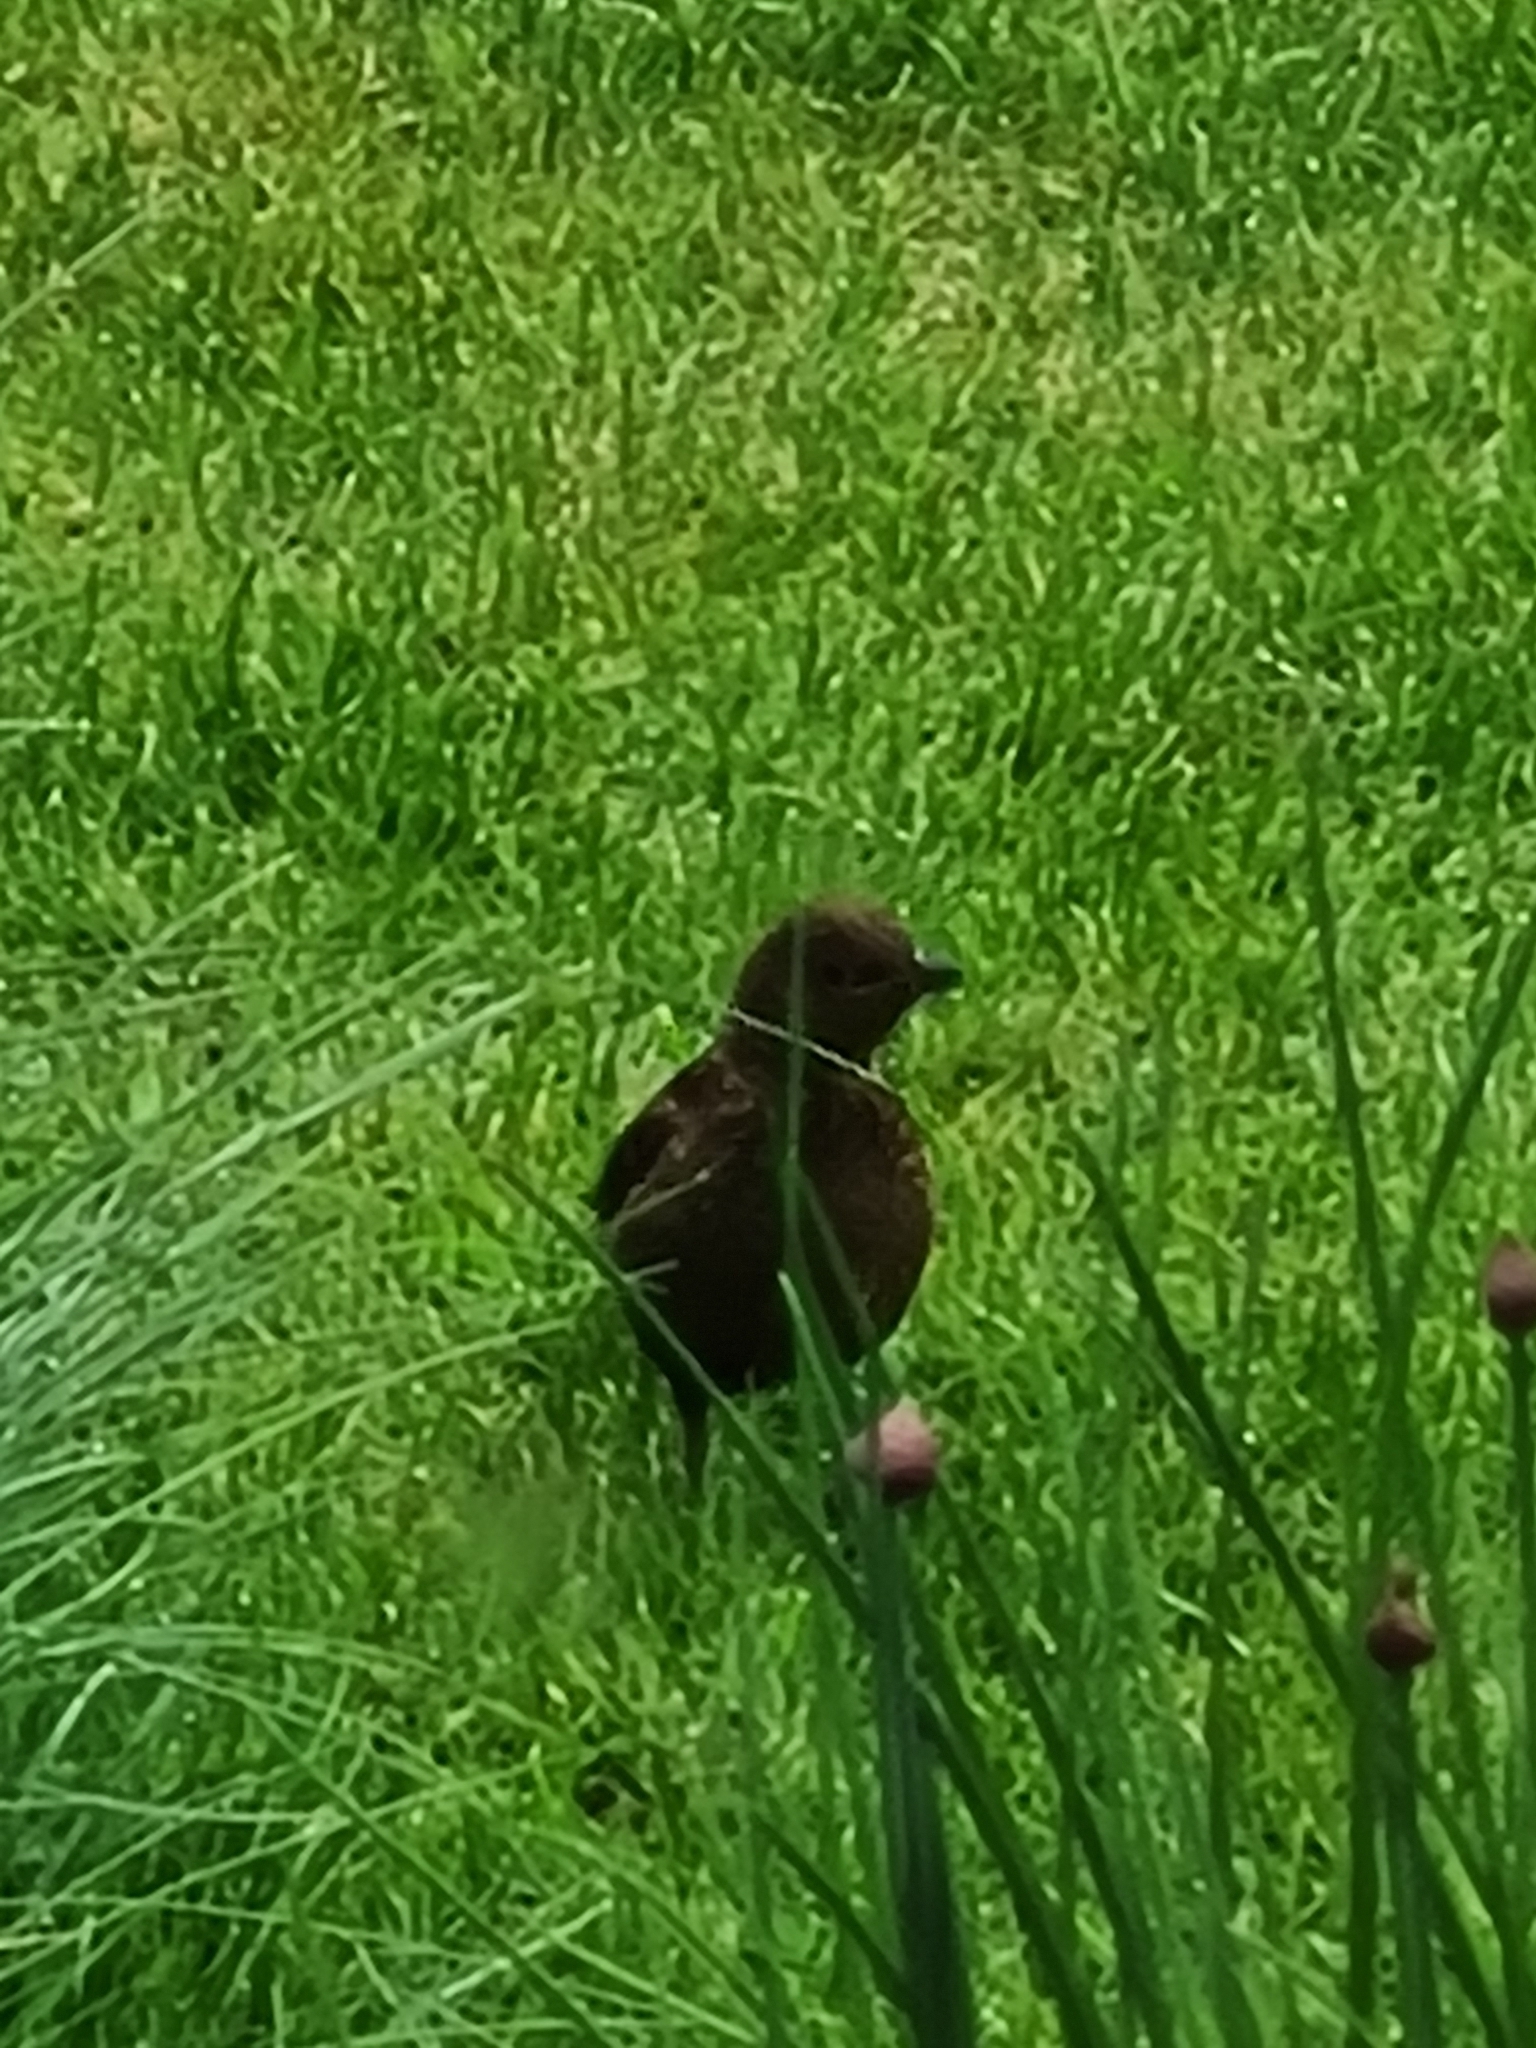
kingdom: Animalia
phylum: Chordata
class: Aves
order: Passeriformes
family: Turdidae
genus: Turdus
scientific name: Turdus merula
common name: Common blackbird
